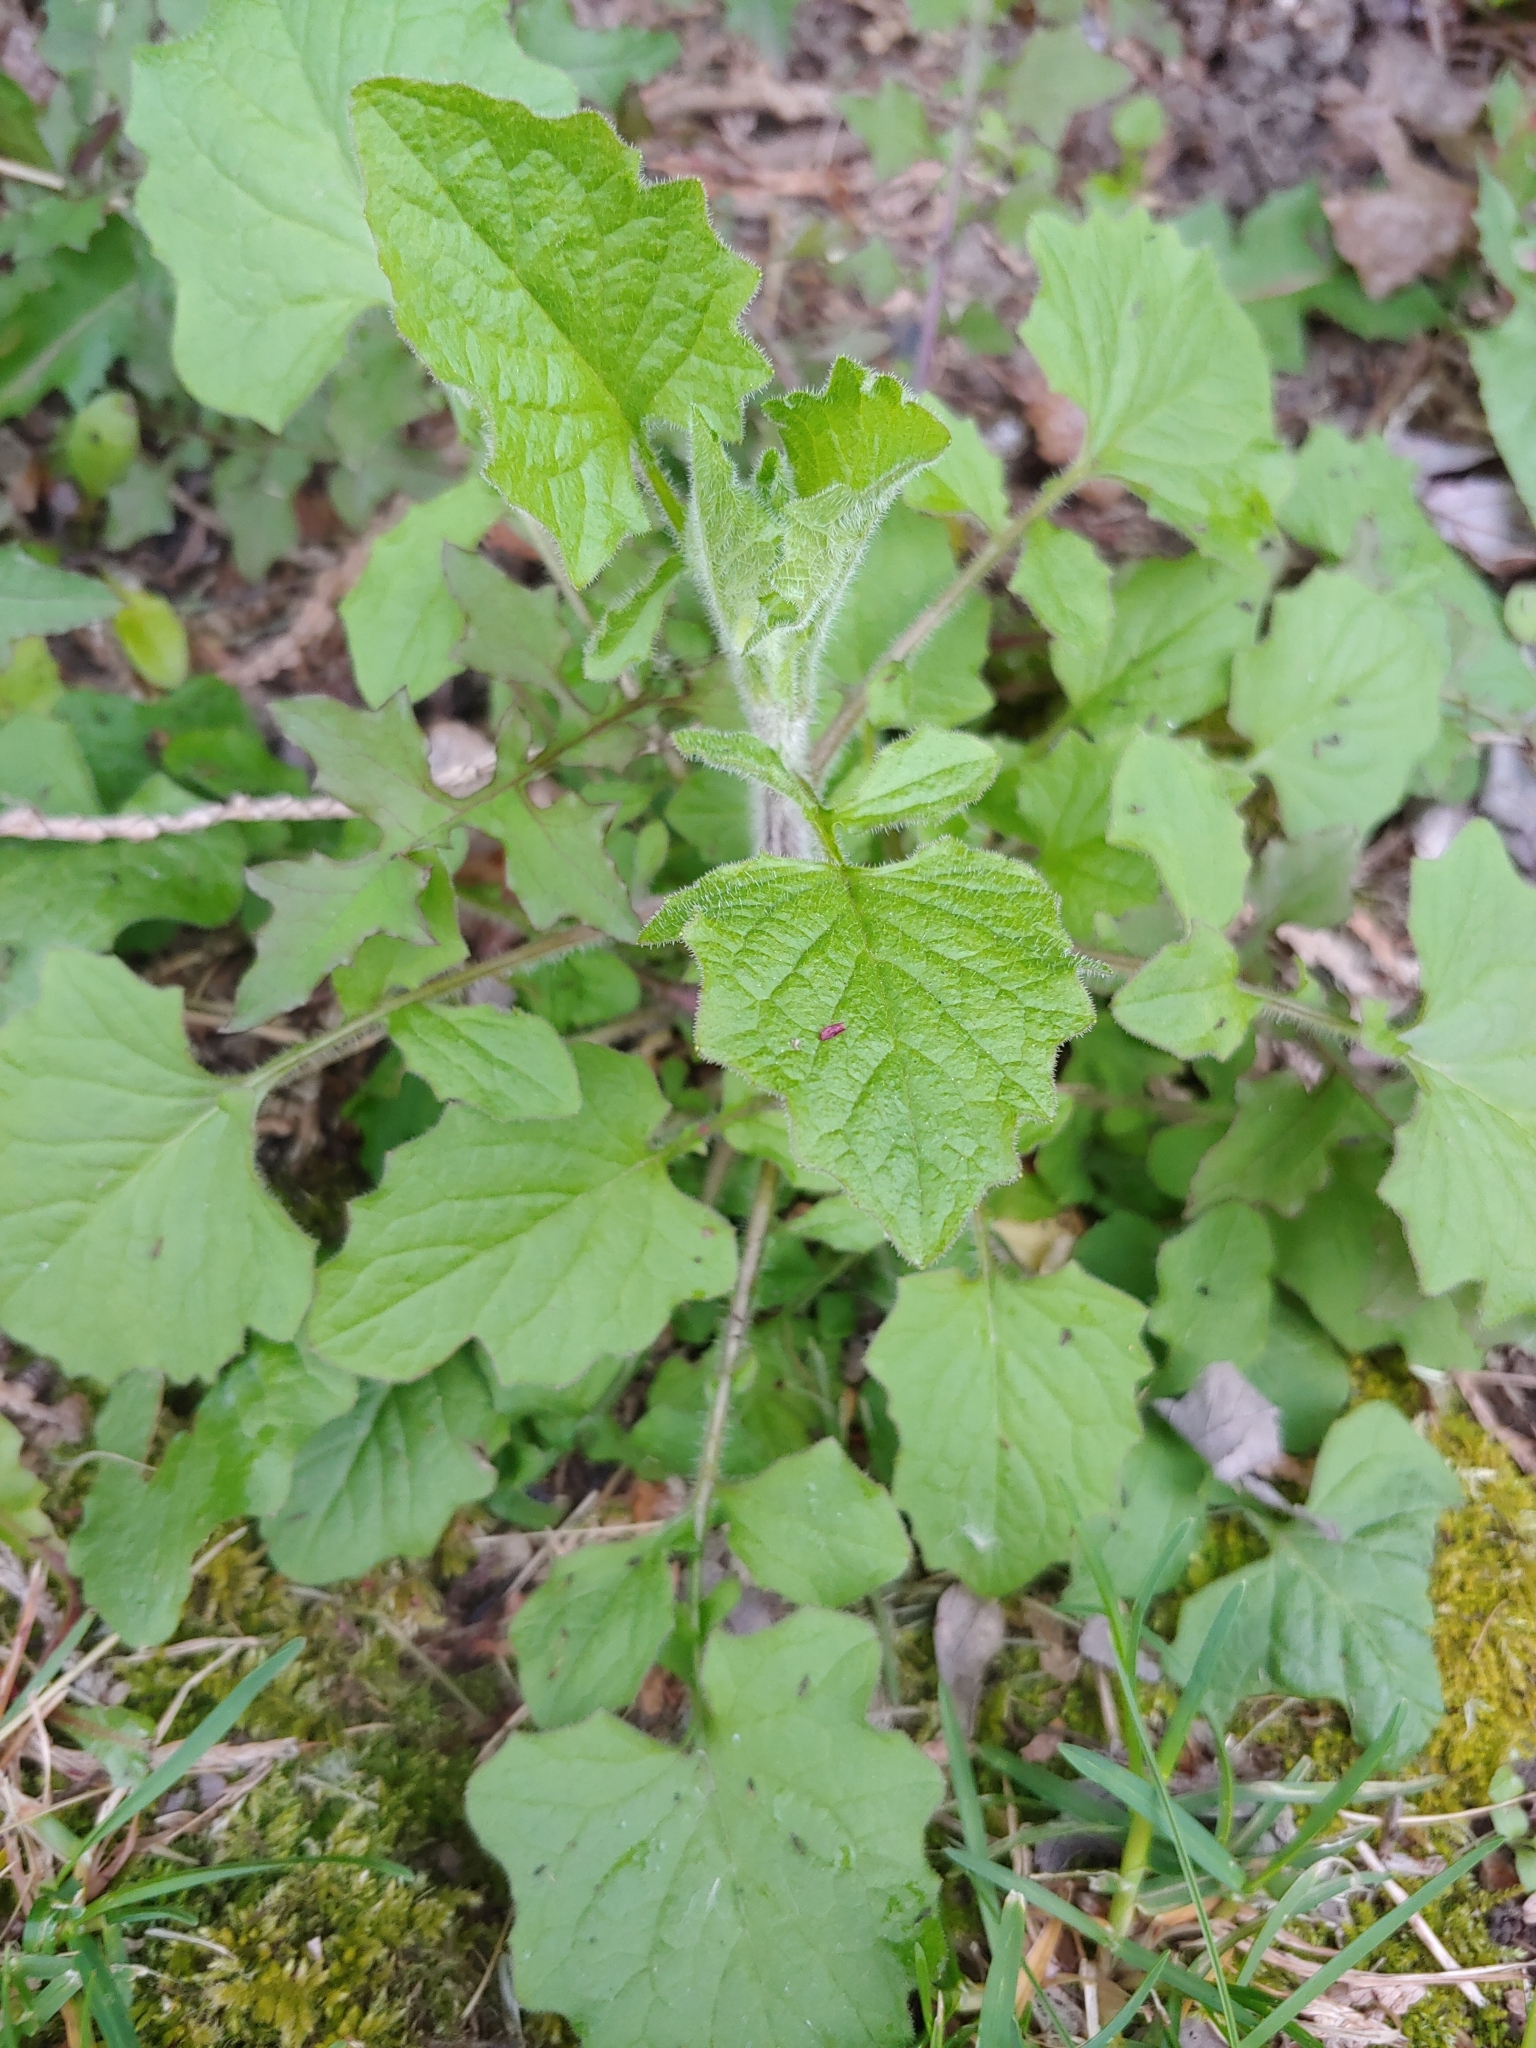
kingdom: Plantae
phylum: Tracheophyta
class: Magnoliopsida
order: Asterales
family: Asteraceae
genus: Lapsana
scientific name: Lapsana communis
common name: Nipplewort
